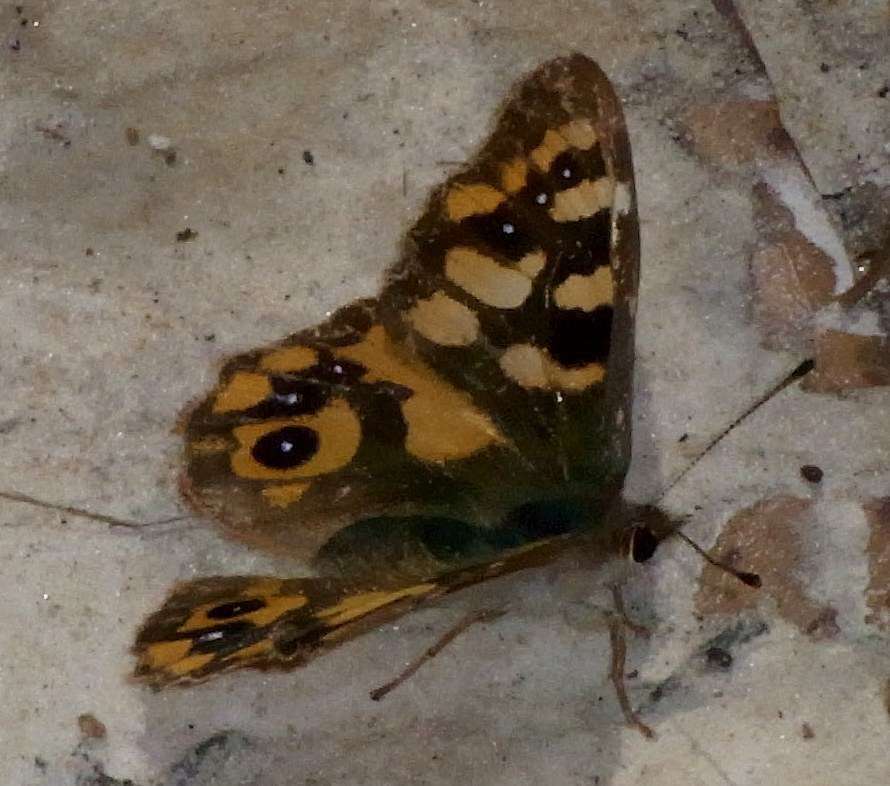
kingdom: Animalia
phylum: Arthropoda
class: Insecta
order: Lepidoptera
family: Nymphalidae
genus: Argynnina
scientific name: Argynnina cyrila
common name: Cyril's brown
